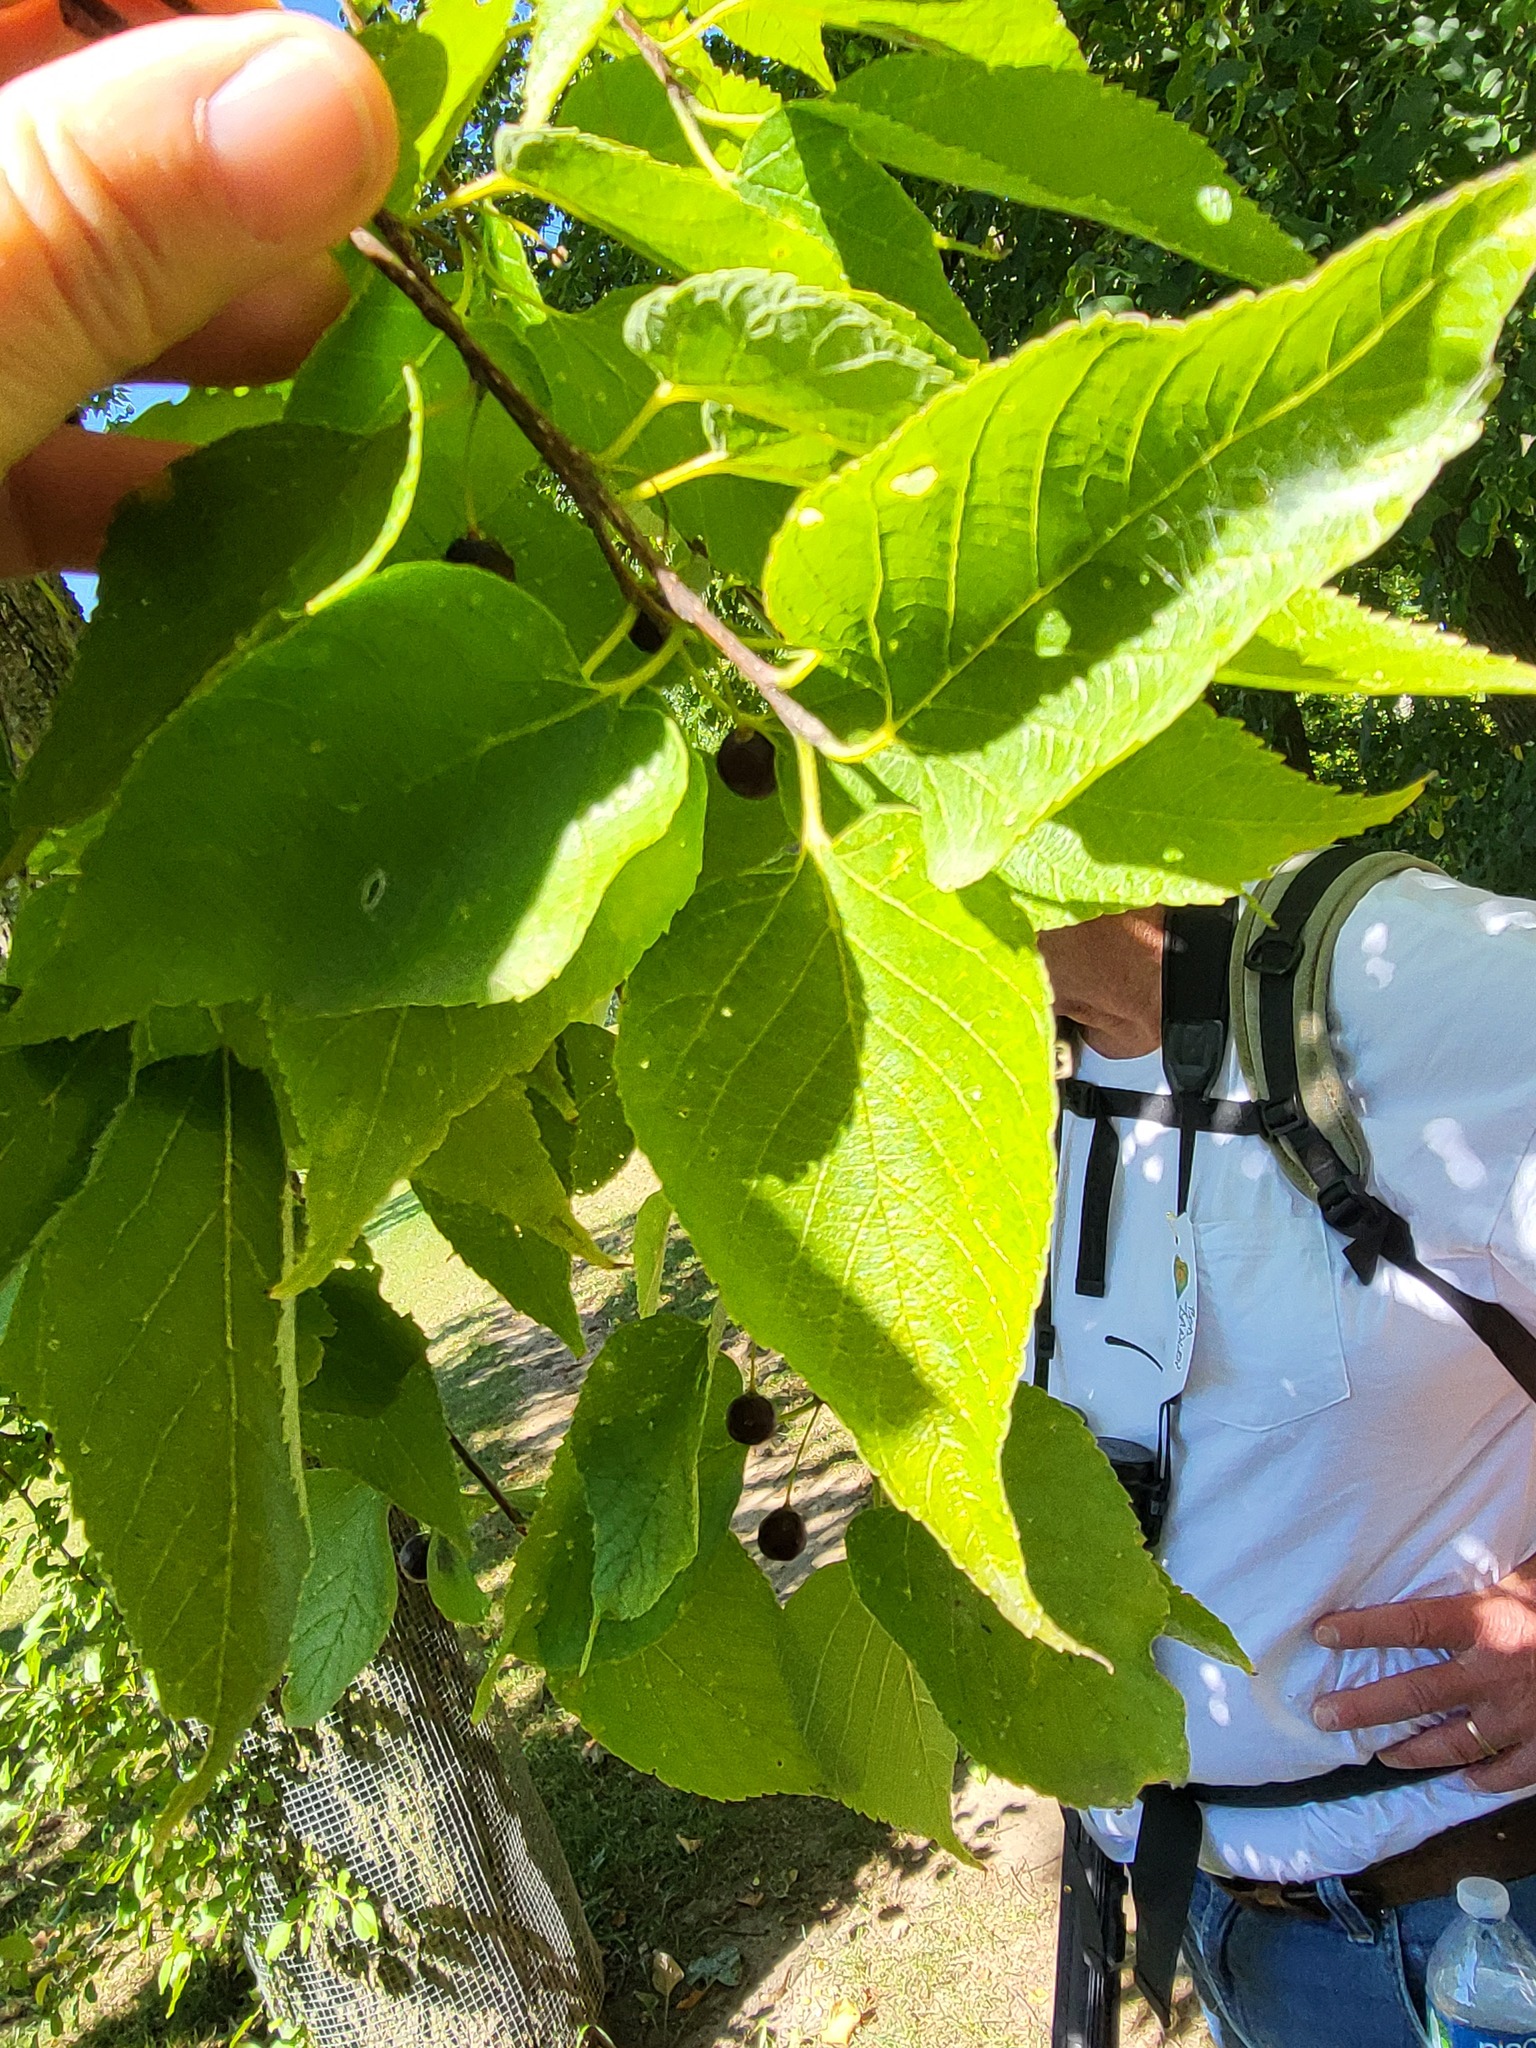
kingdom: Plantae
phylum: Tracheophyta
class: Magnoliopsida
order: Rosales
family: Cannabaceae
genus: Celtis
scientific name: Celtis occidentalis
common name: Common hackberry
